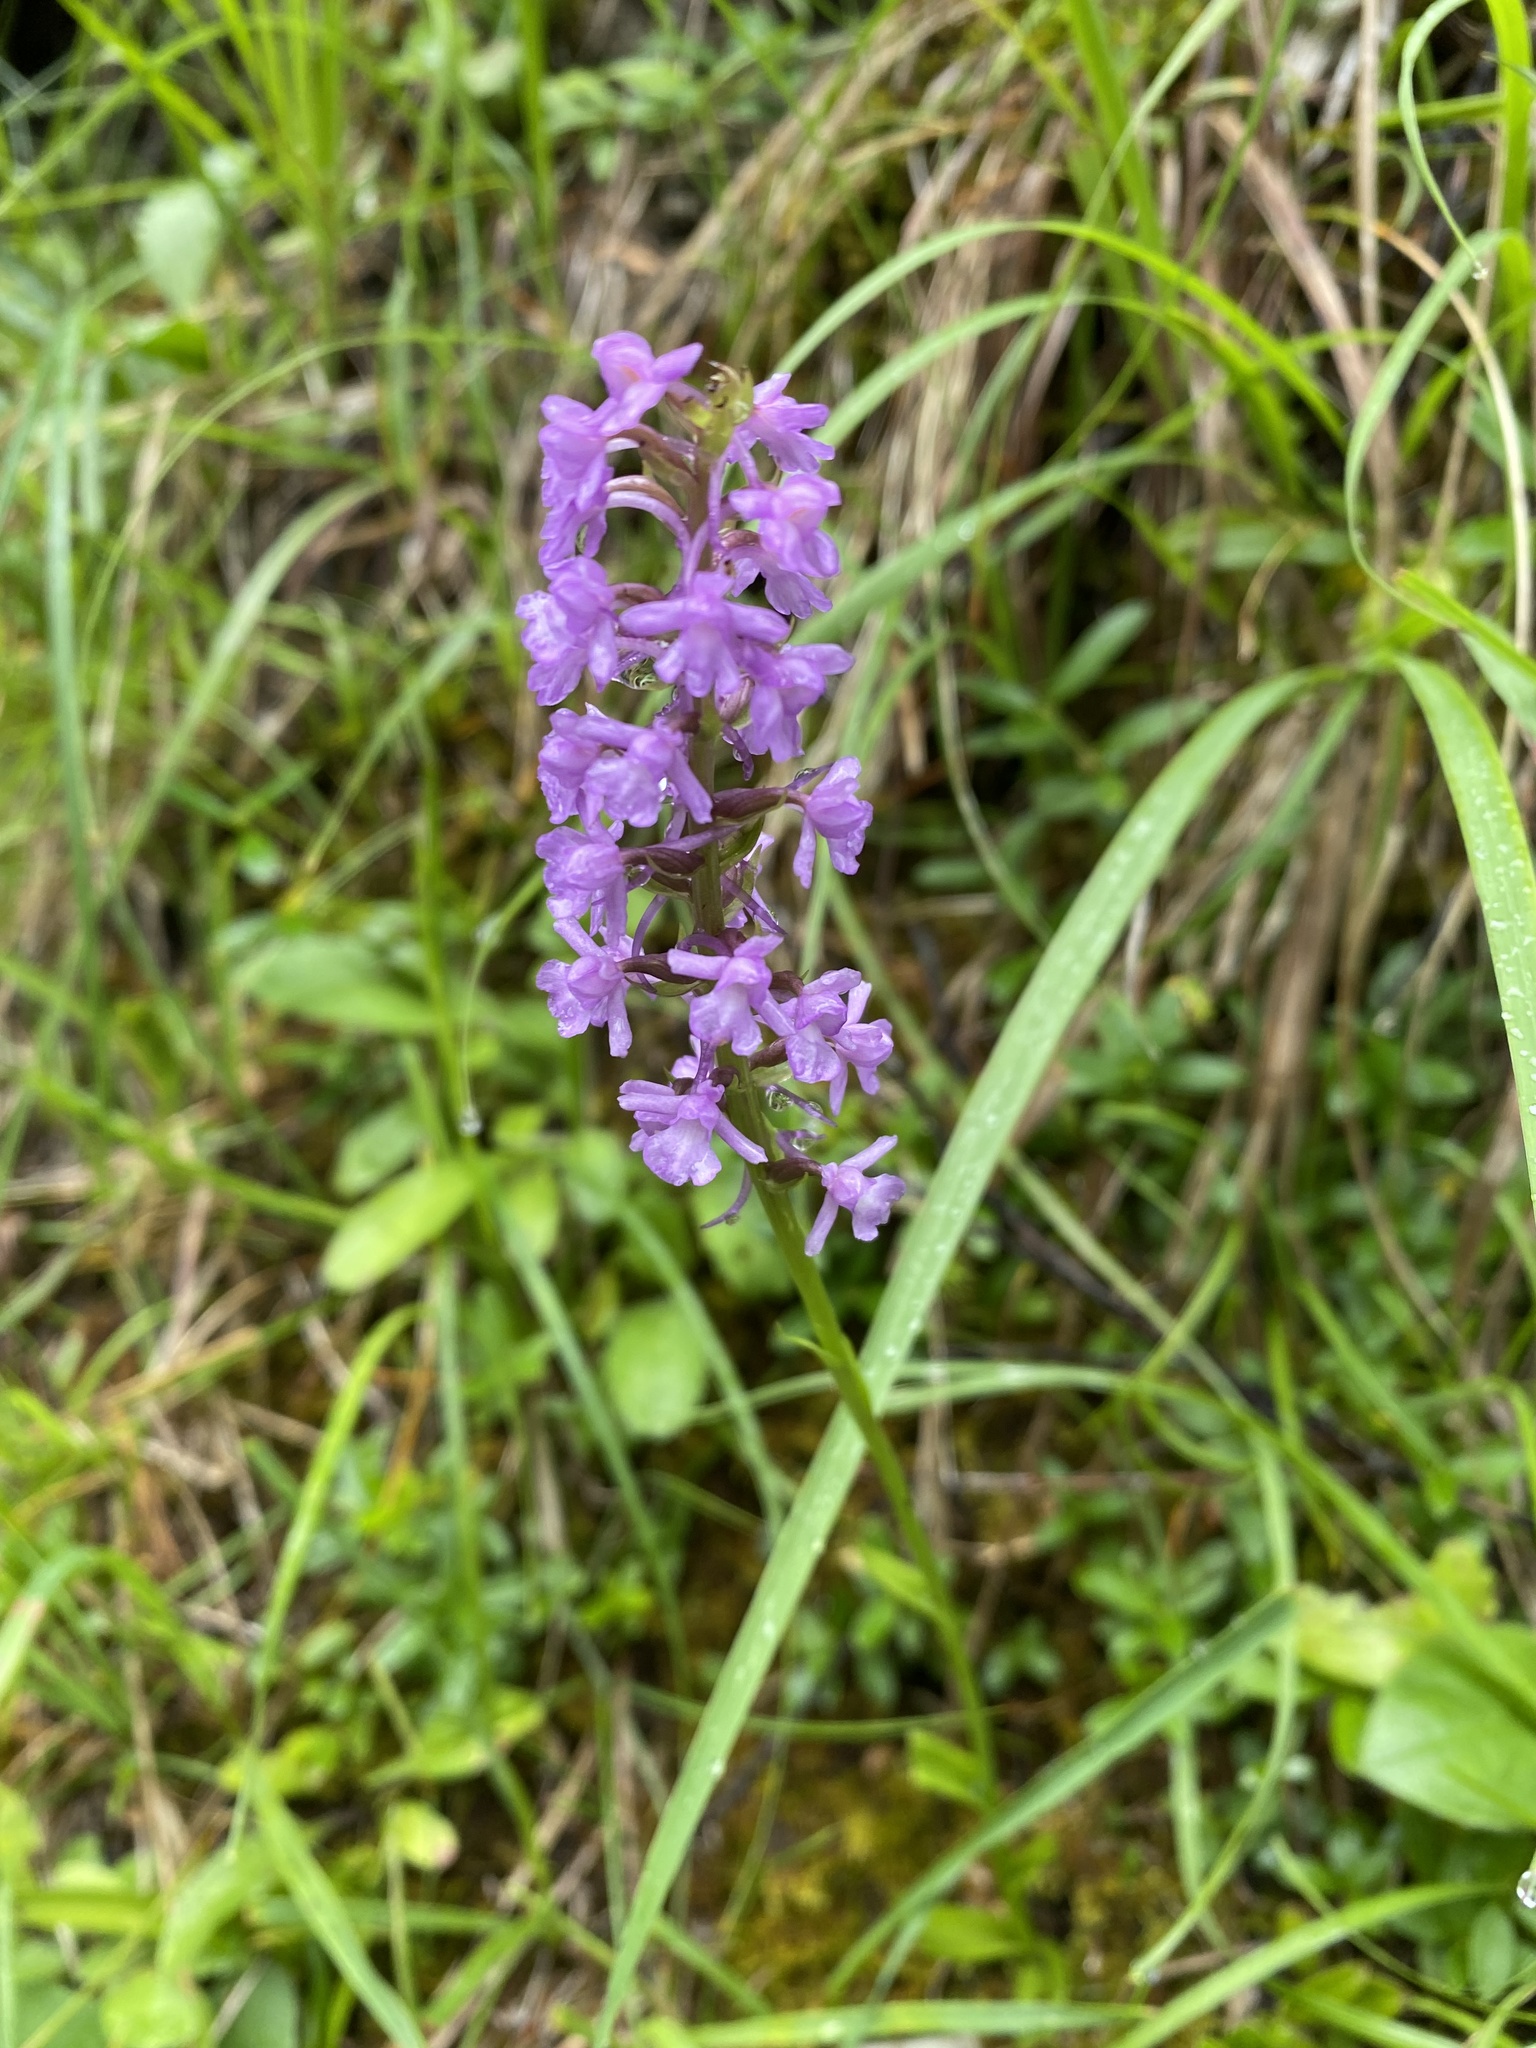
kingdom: Plantae
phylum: Tracheophyta
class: Liliopsida
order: Asparagales
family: Orchidaceae
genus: Gymnadenia
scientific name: Gymnadenia conopsea
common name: Fragrant orchid
